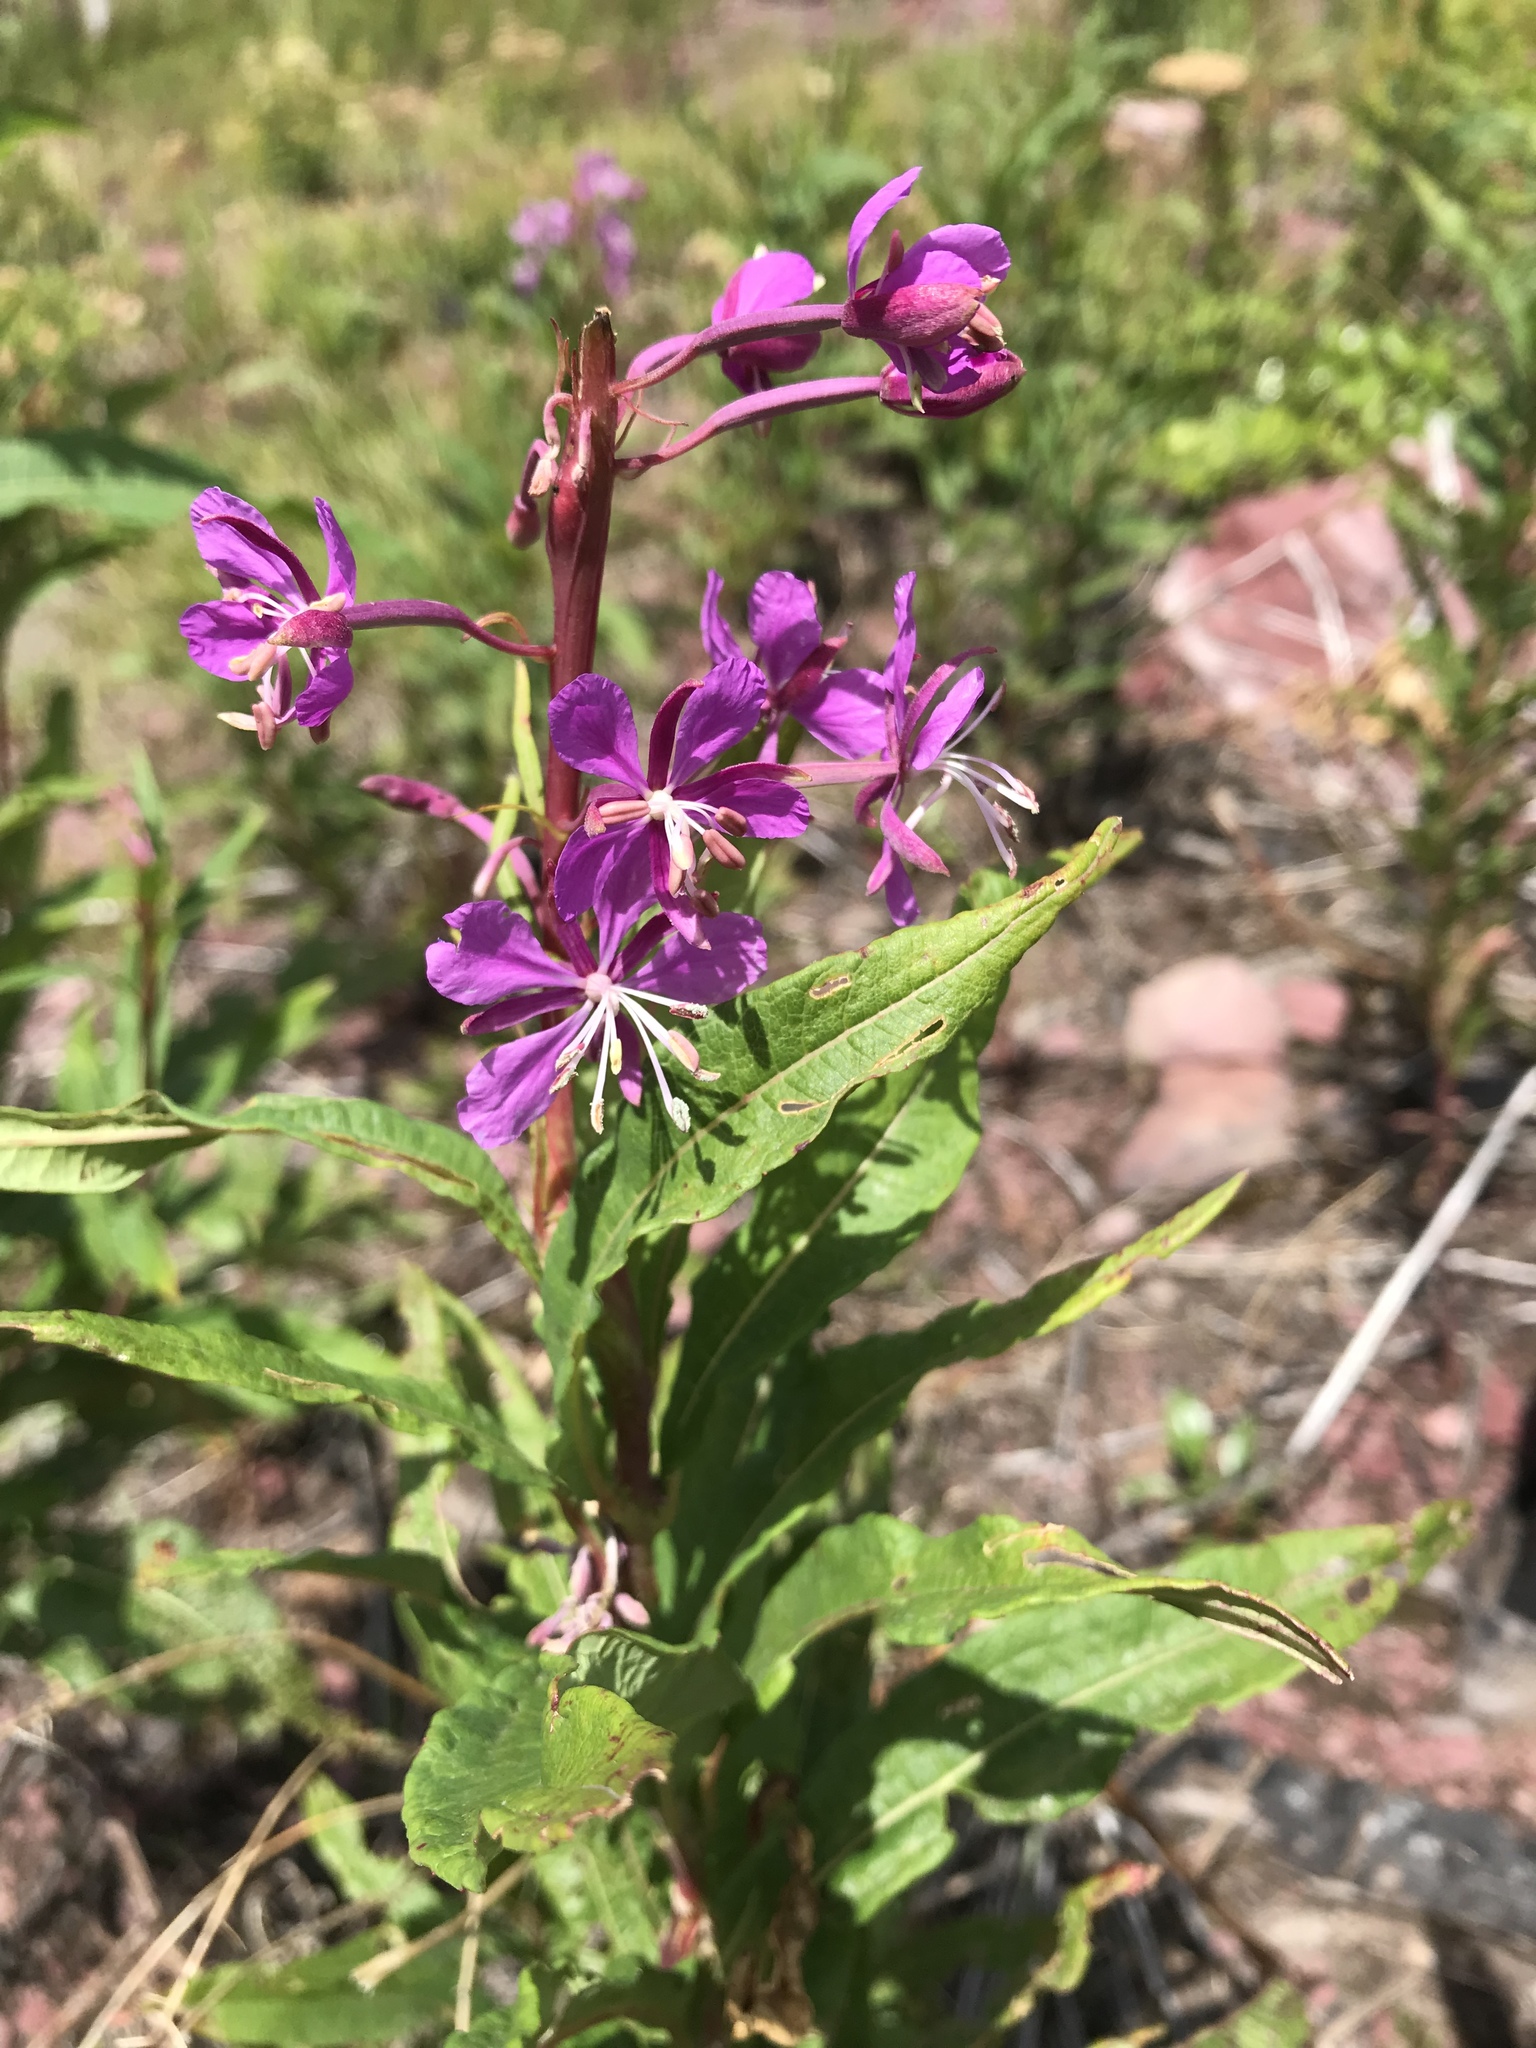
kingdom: Plantae
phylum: Tracheophyta
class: Magnoliopsida
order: Myrtales
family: Onagraceae
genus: Chamaenerion
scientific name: Chamaenerion angustifolium
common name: Fireweed
